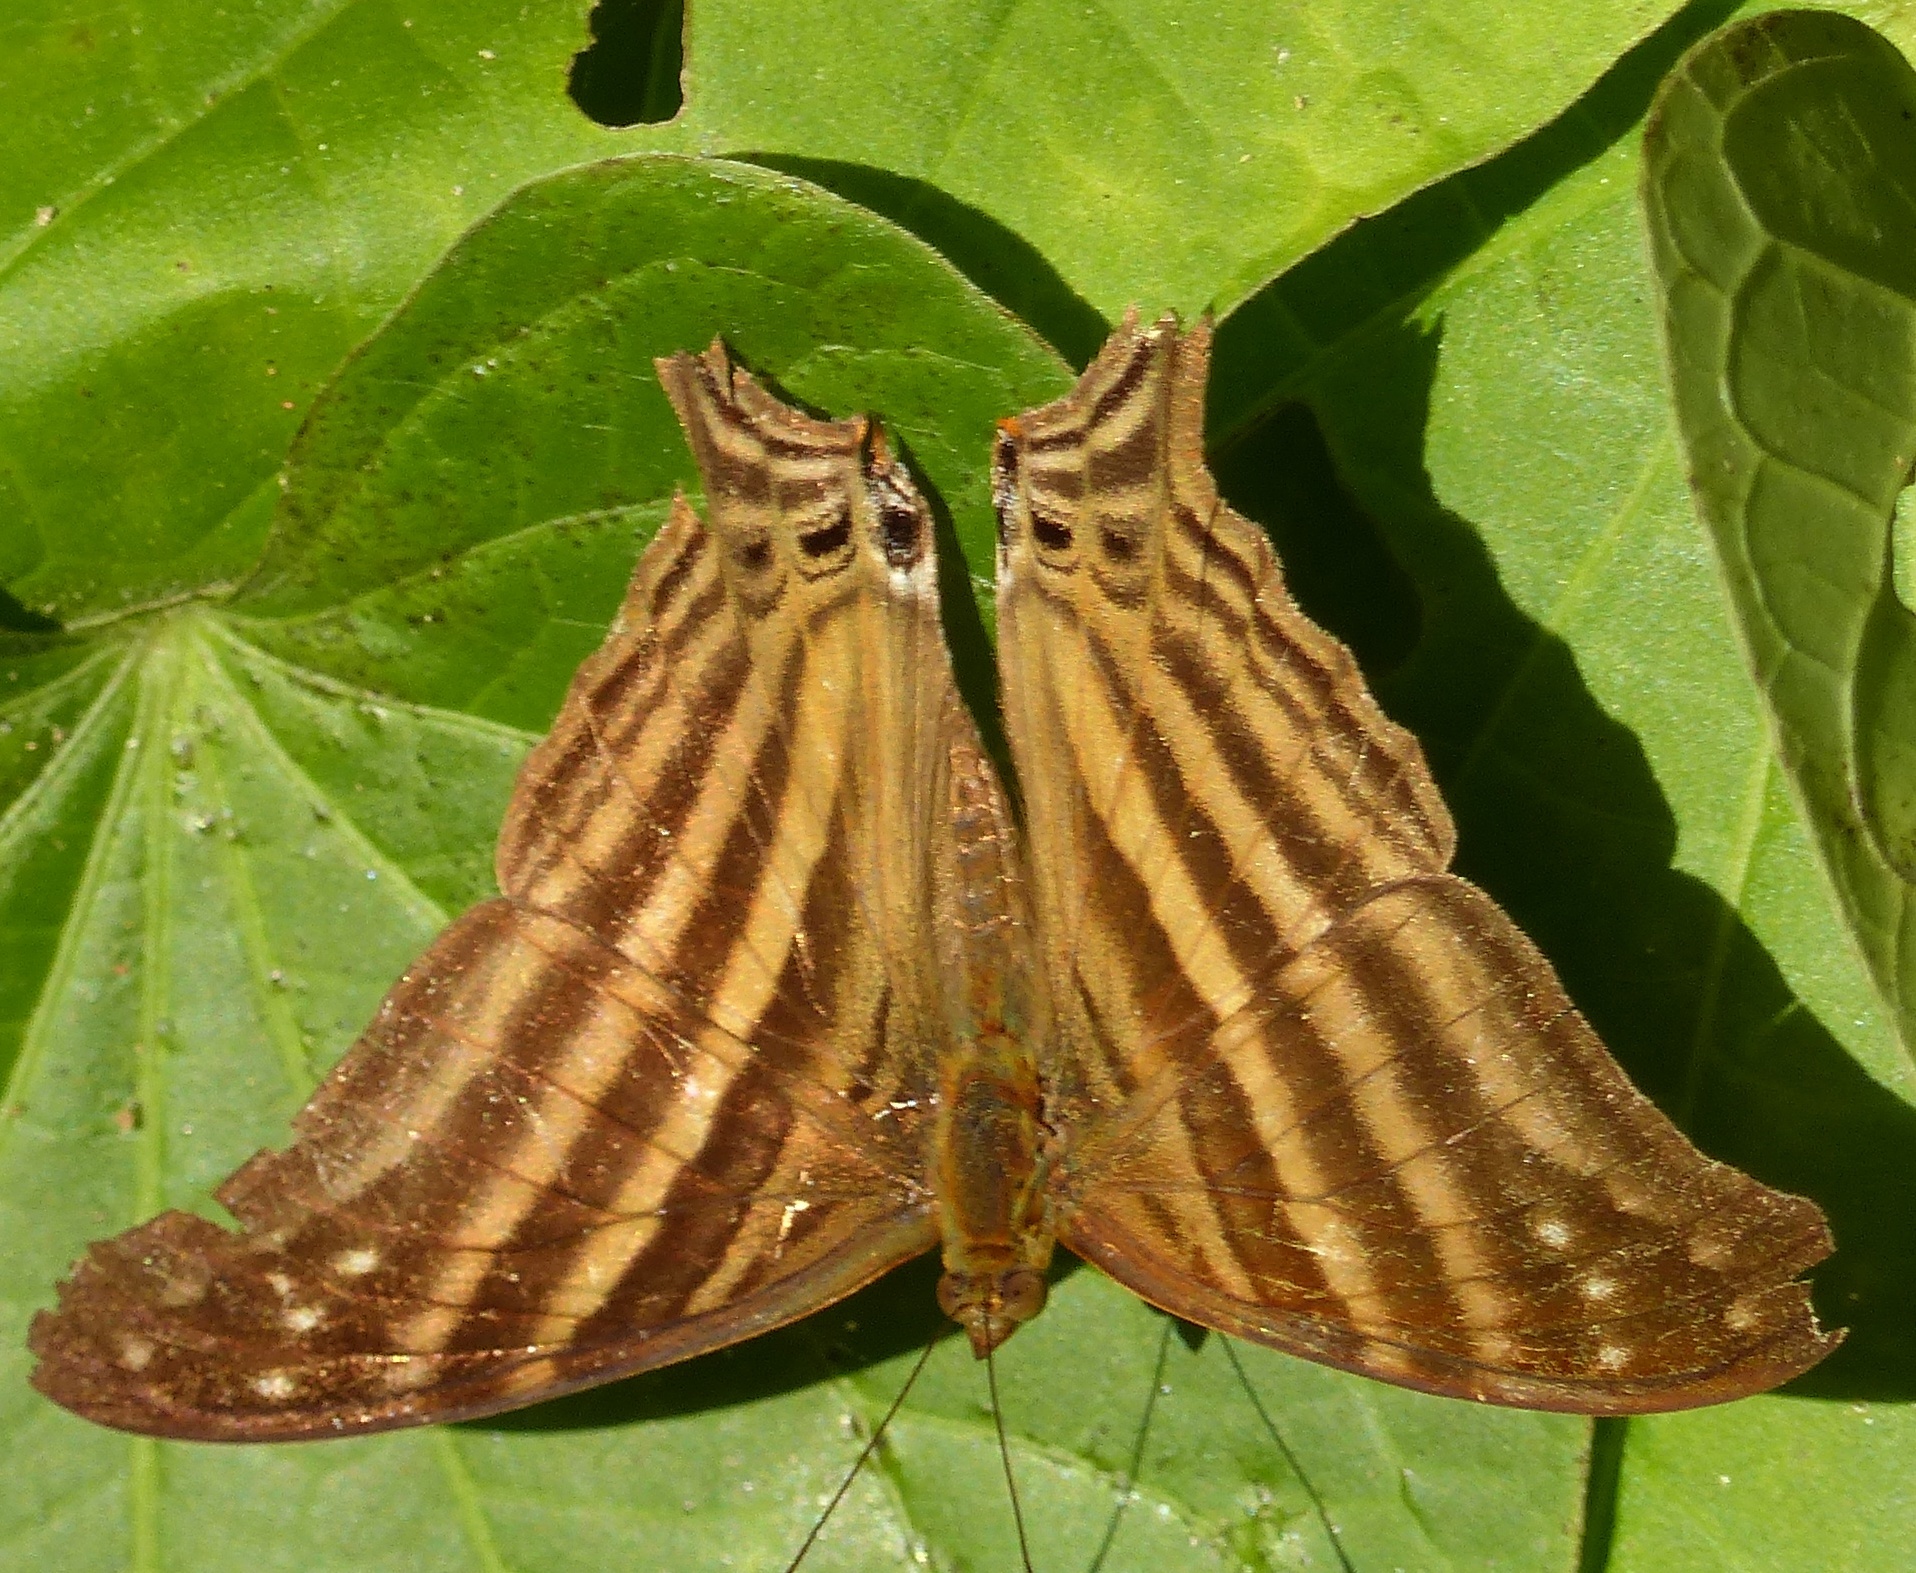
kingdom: Animalia
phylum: Arthropoda
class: Insecta
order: Lepidoptera
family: Nymphalidae
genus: Marpesia
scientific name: Marpesia chiron
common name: Many-banded daggerwing
